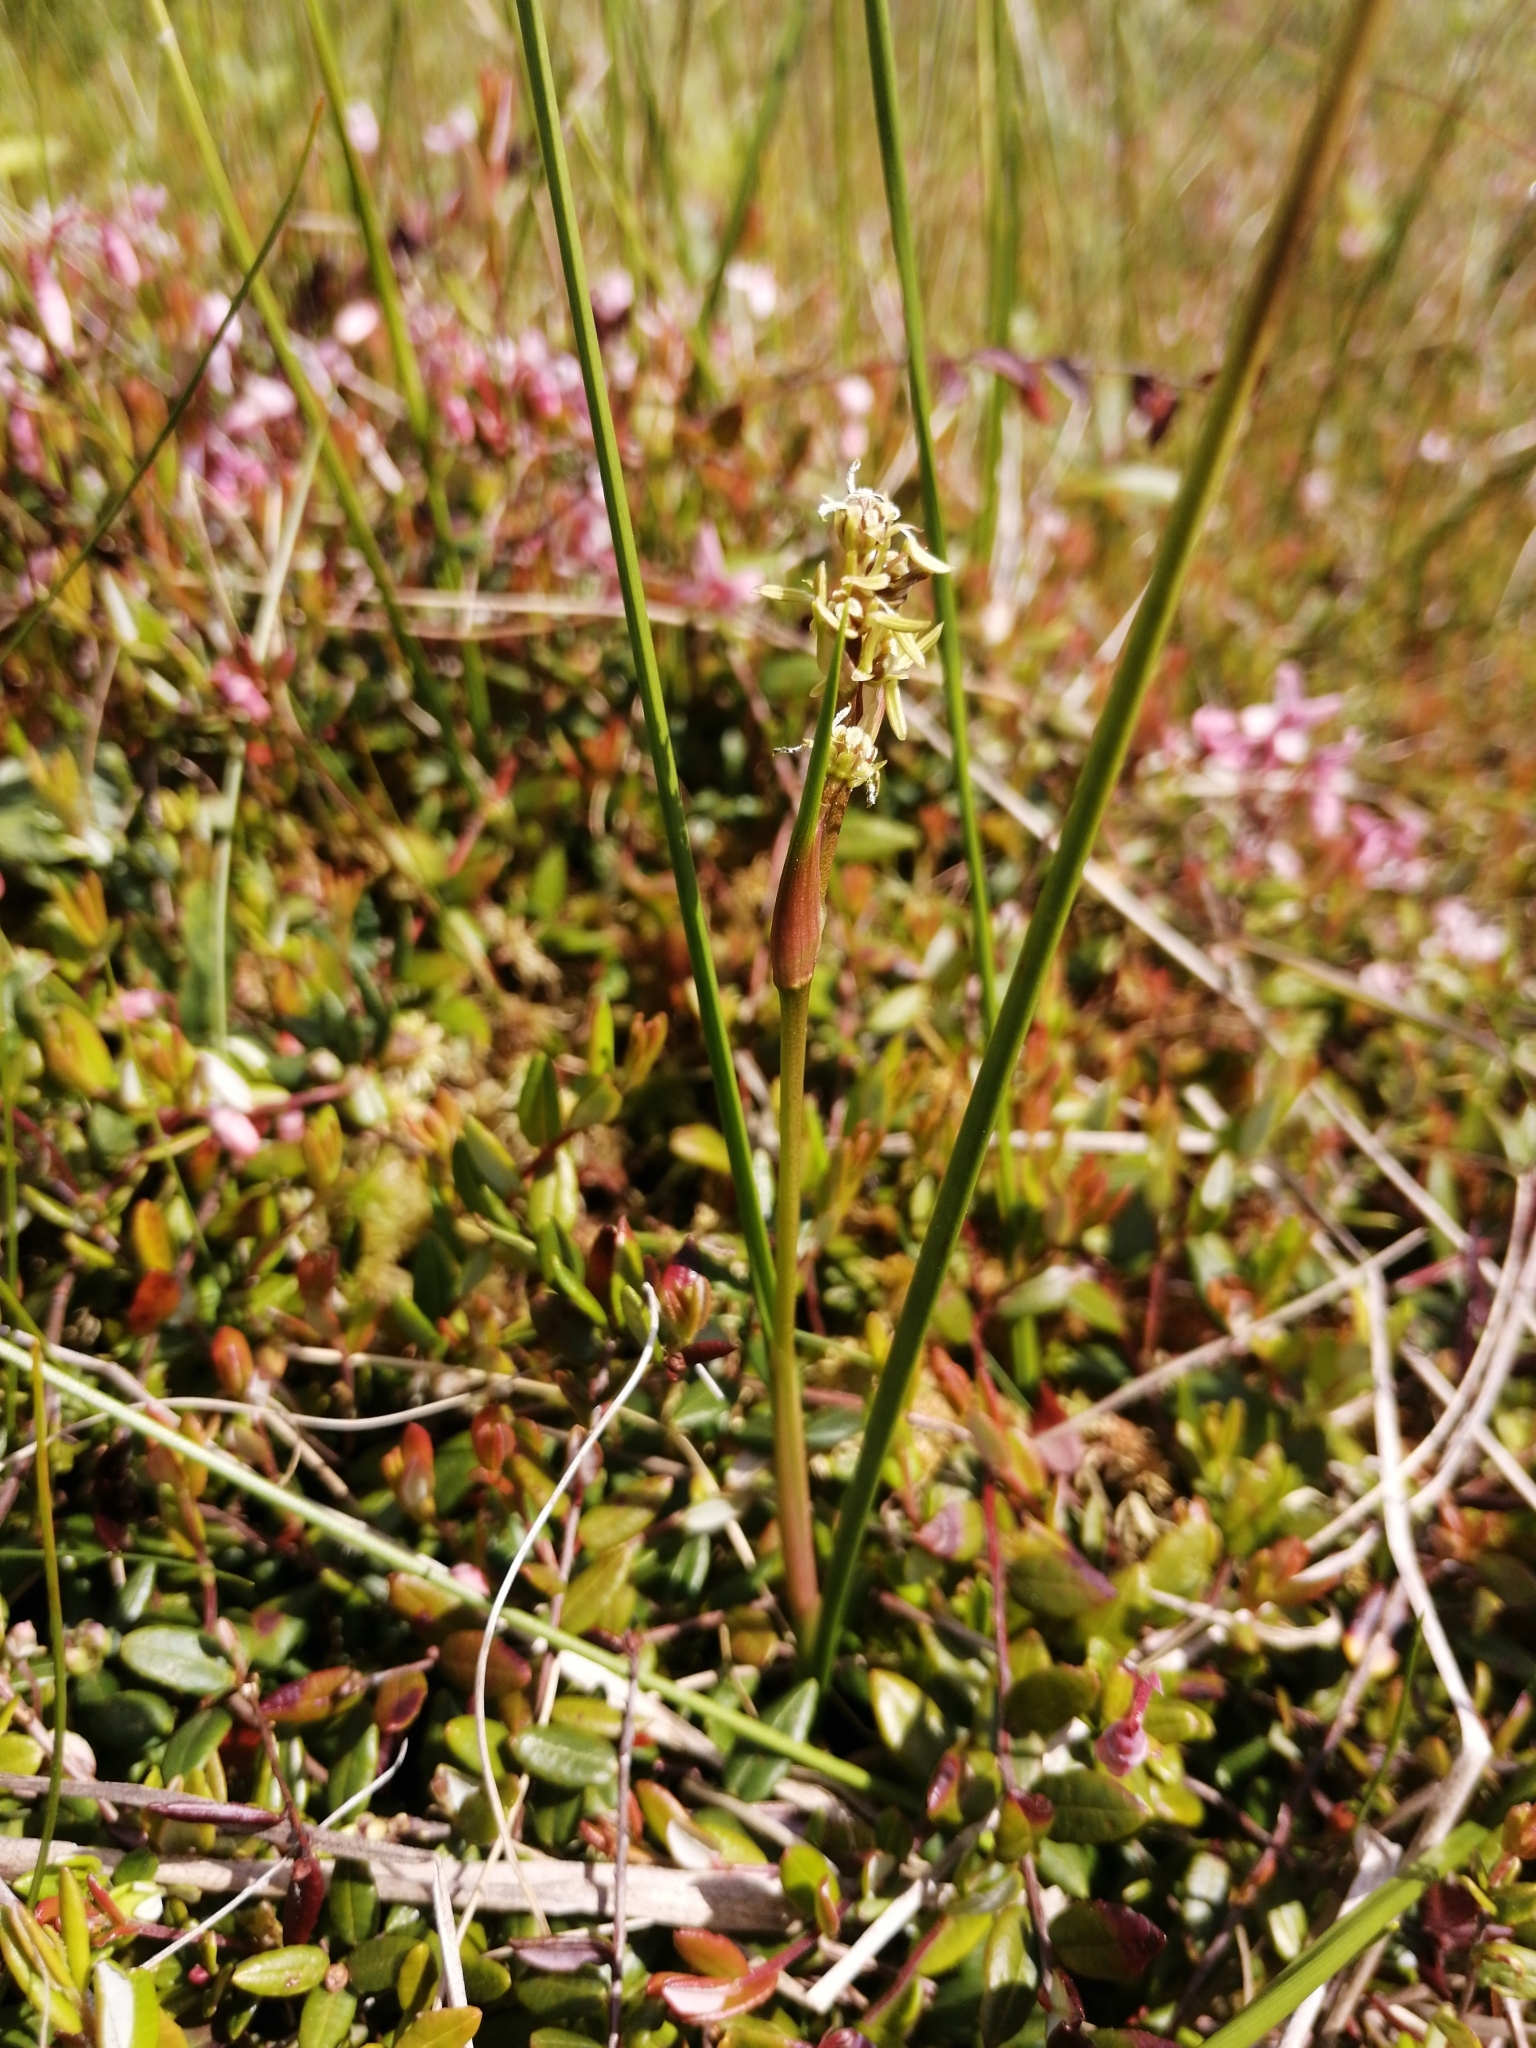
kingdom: Plantae
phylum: Tracheophyta
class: Liliopsida
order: Alismatales
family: Scheuchzeriaceae
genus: Scheuchzeria
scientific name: Scheuchzeria palustris
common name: Rannoch-rush
